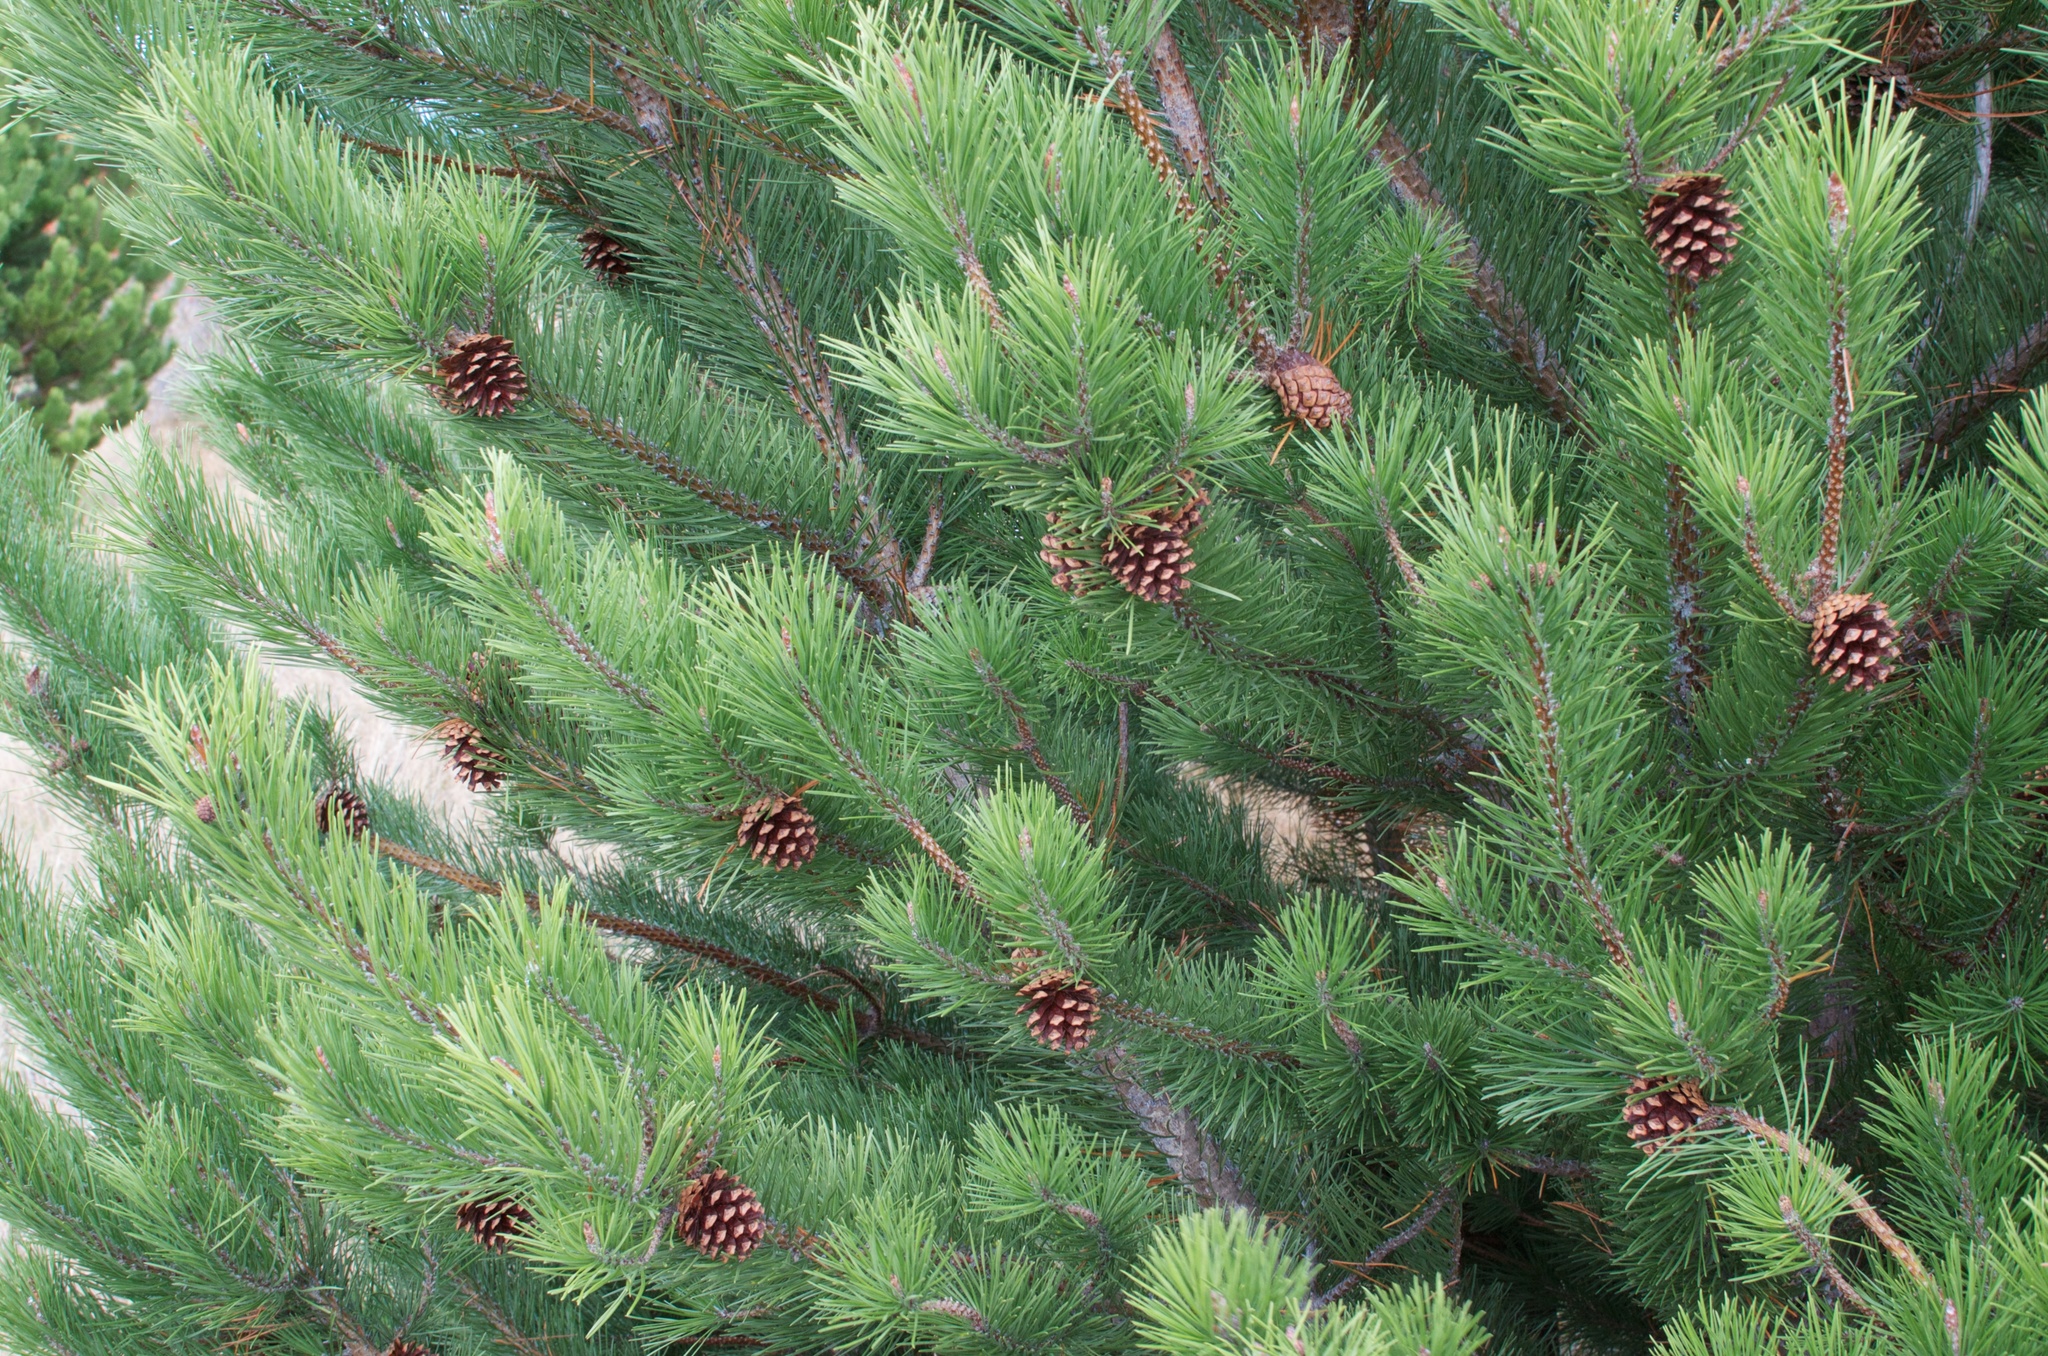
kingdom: Plantae
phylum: Tracheophyta
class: Pinopsida
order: Pinales
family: Pinaceae
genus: Pinus
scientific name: Pinus contorta
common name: Lodgepole pine
